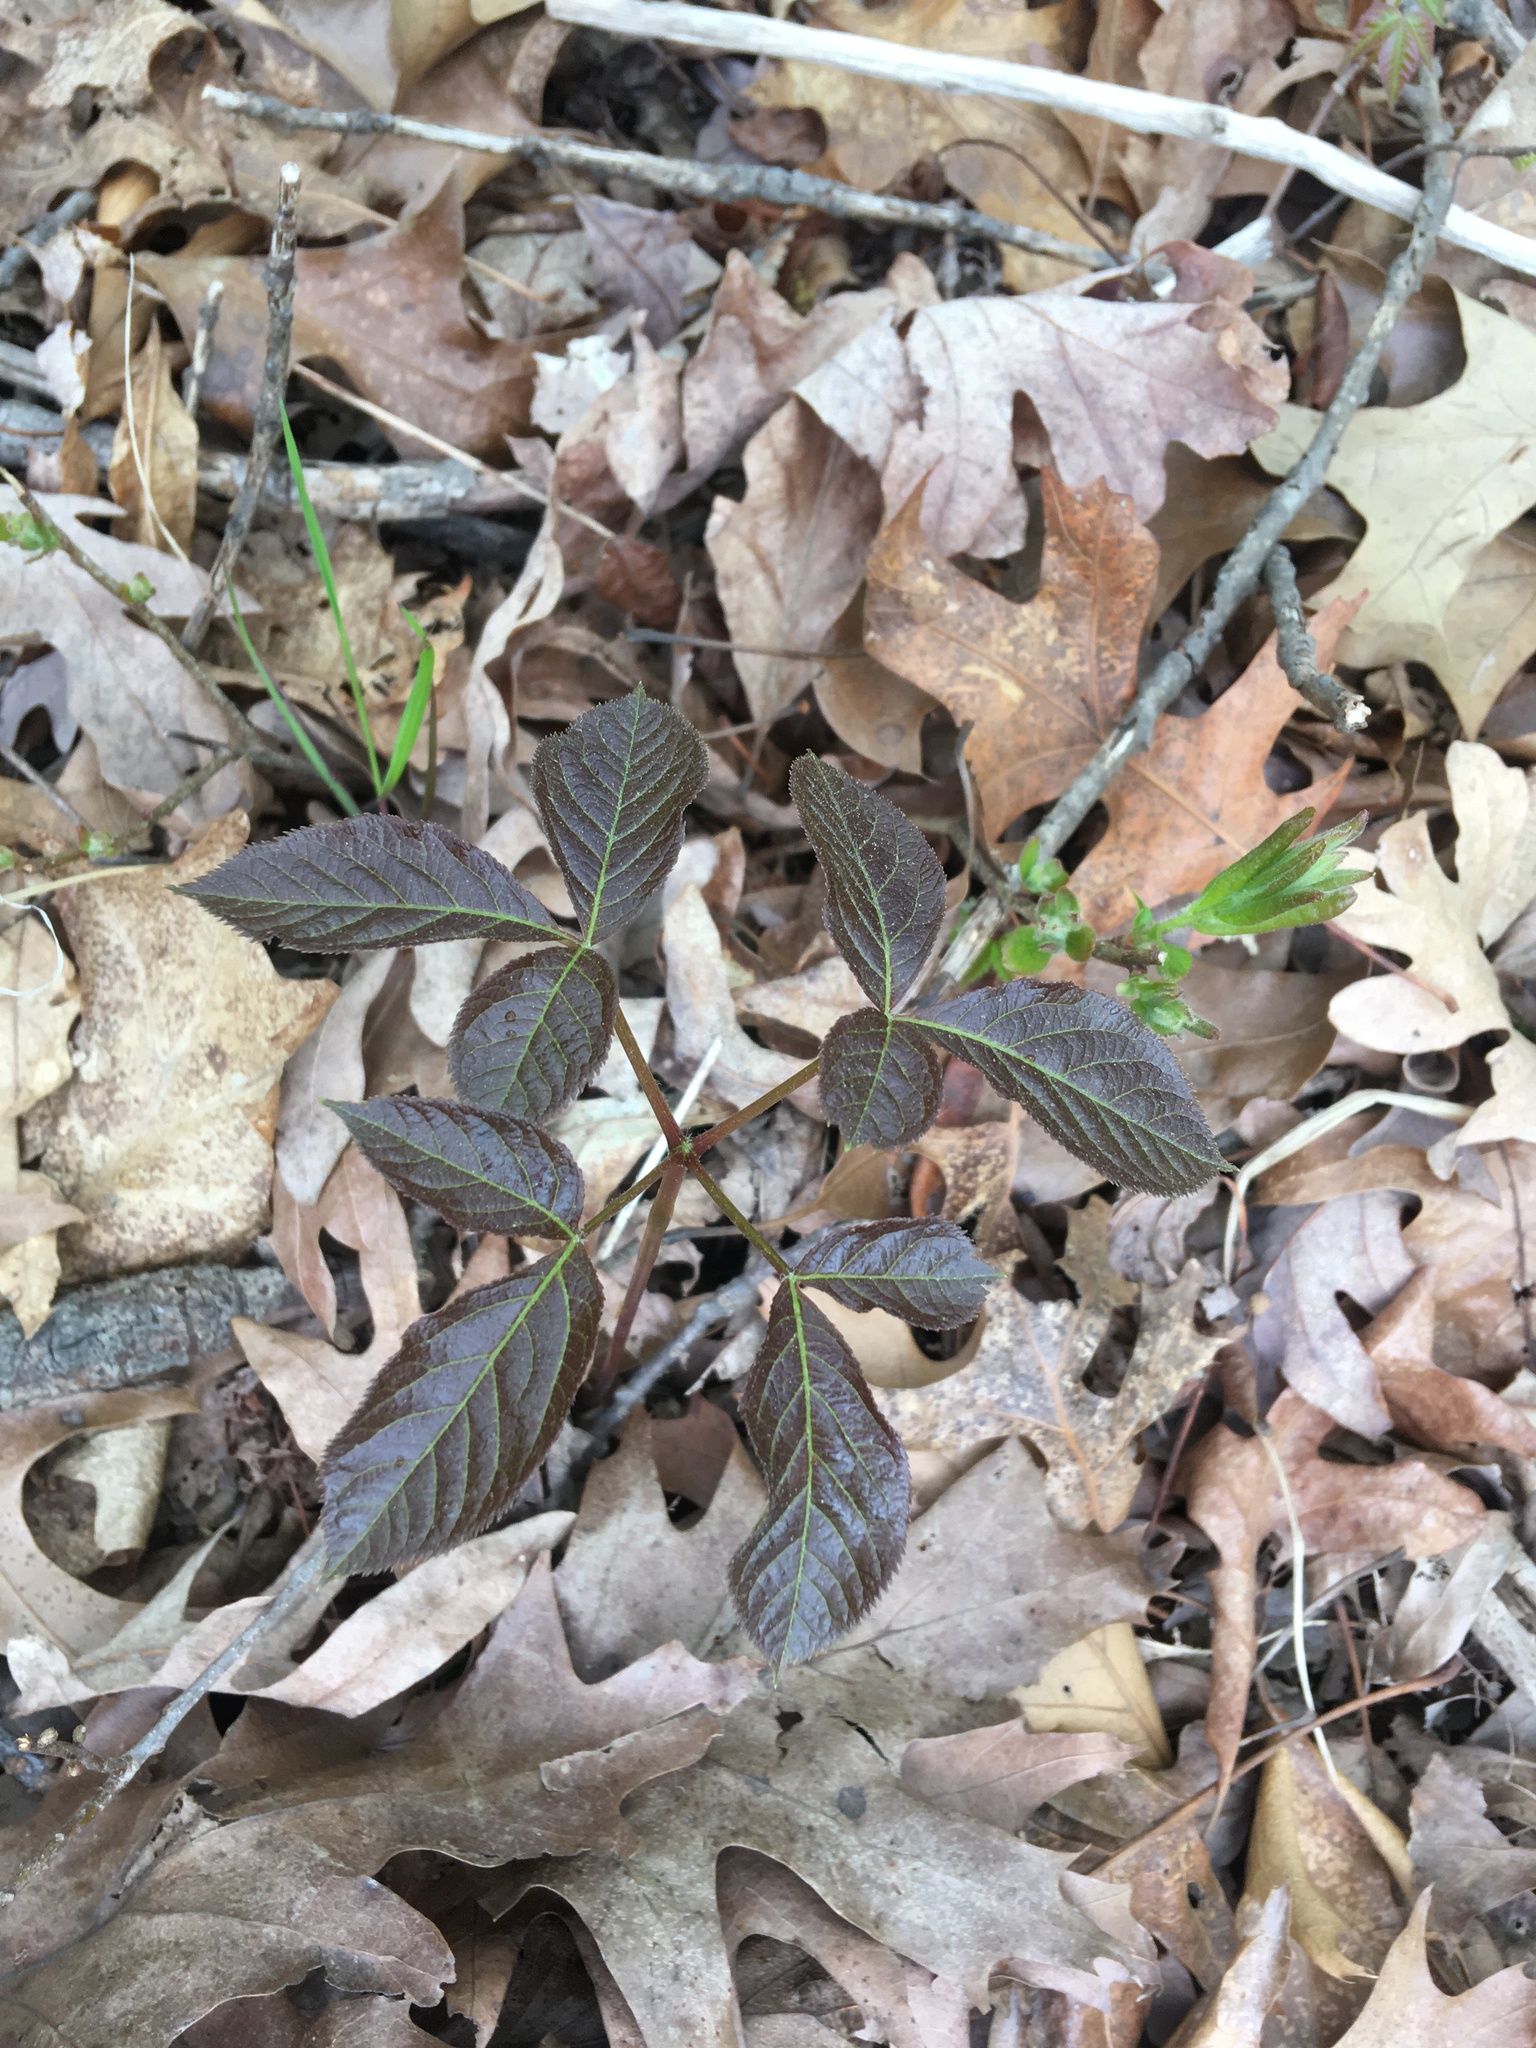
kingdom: Plantae
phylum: Tracheophyta
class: Magnoliopsida
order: Apiales
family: Araliaceae
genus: Aralia
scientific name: Aralia nudicaulis
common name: Wild sarsaparilla
